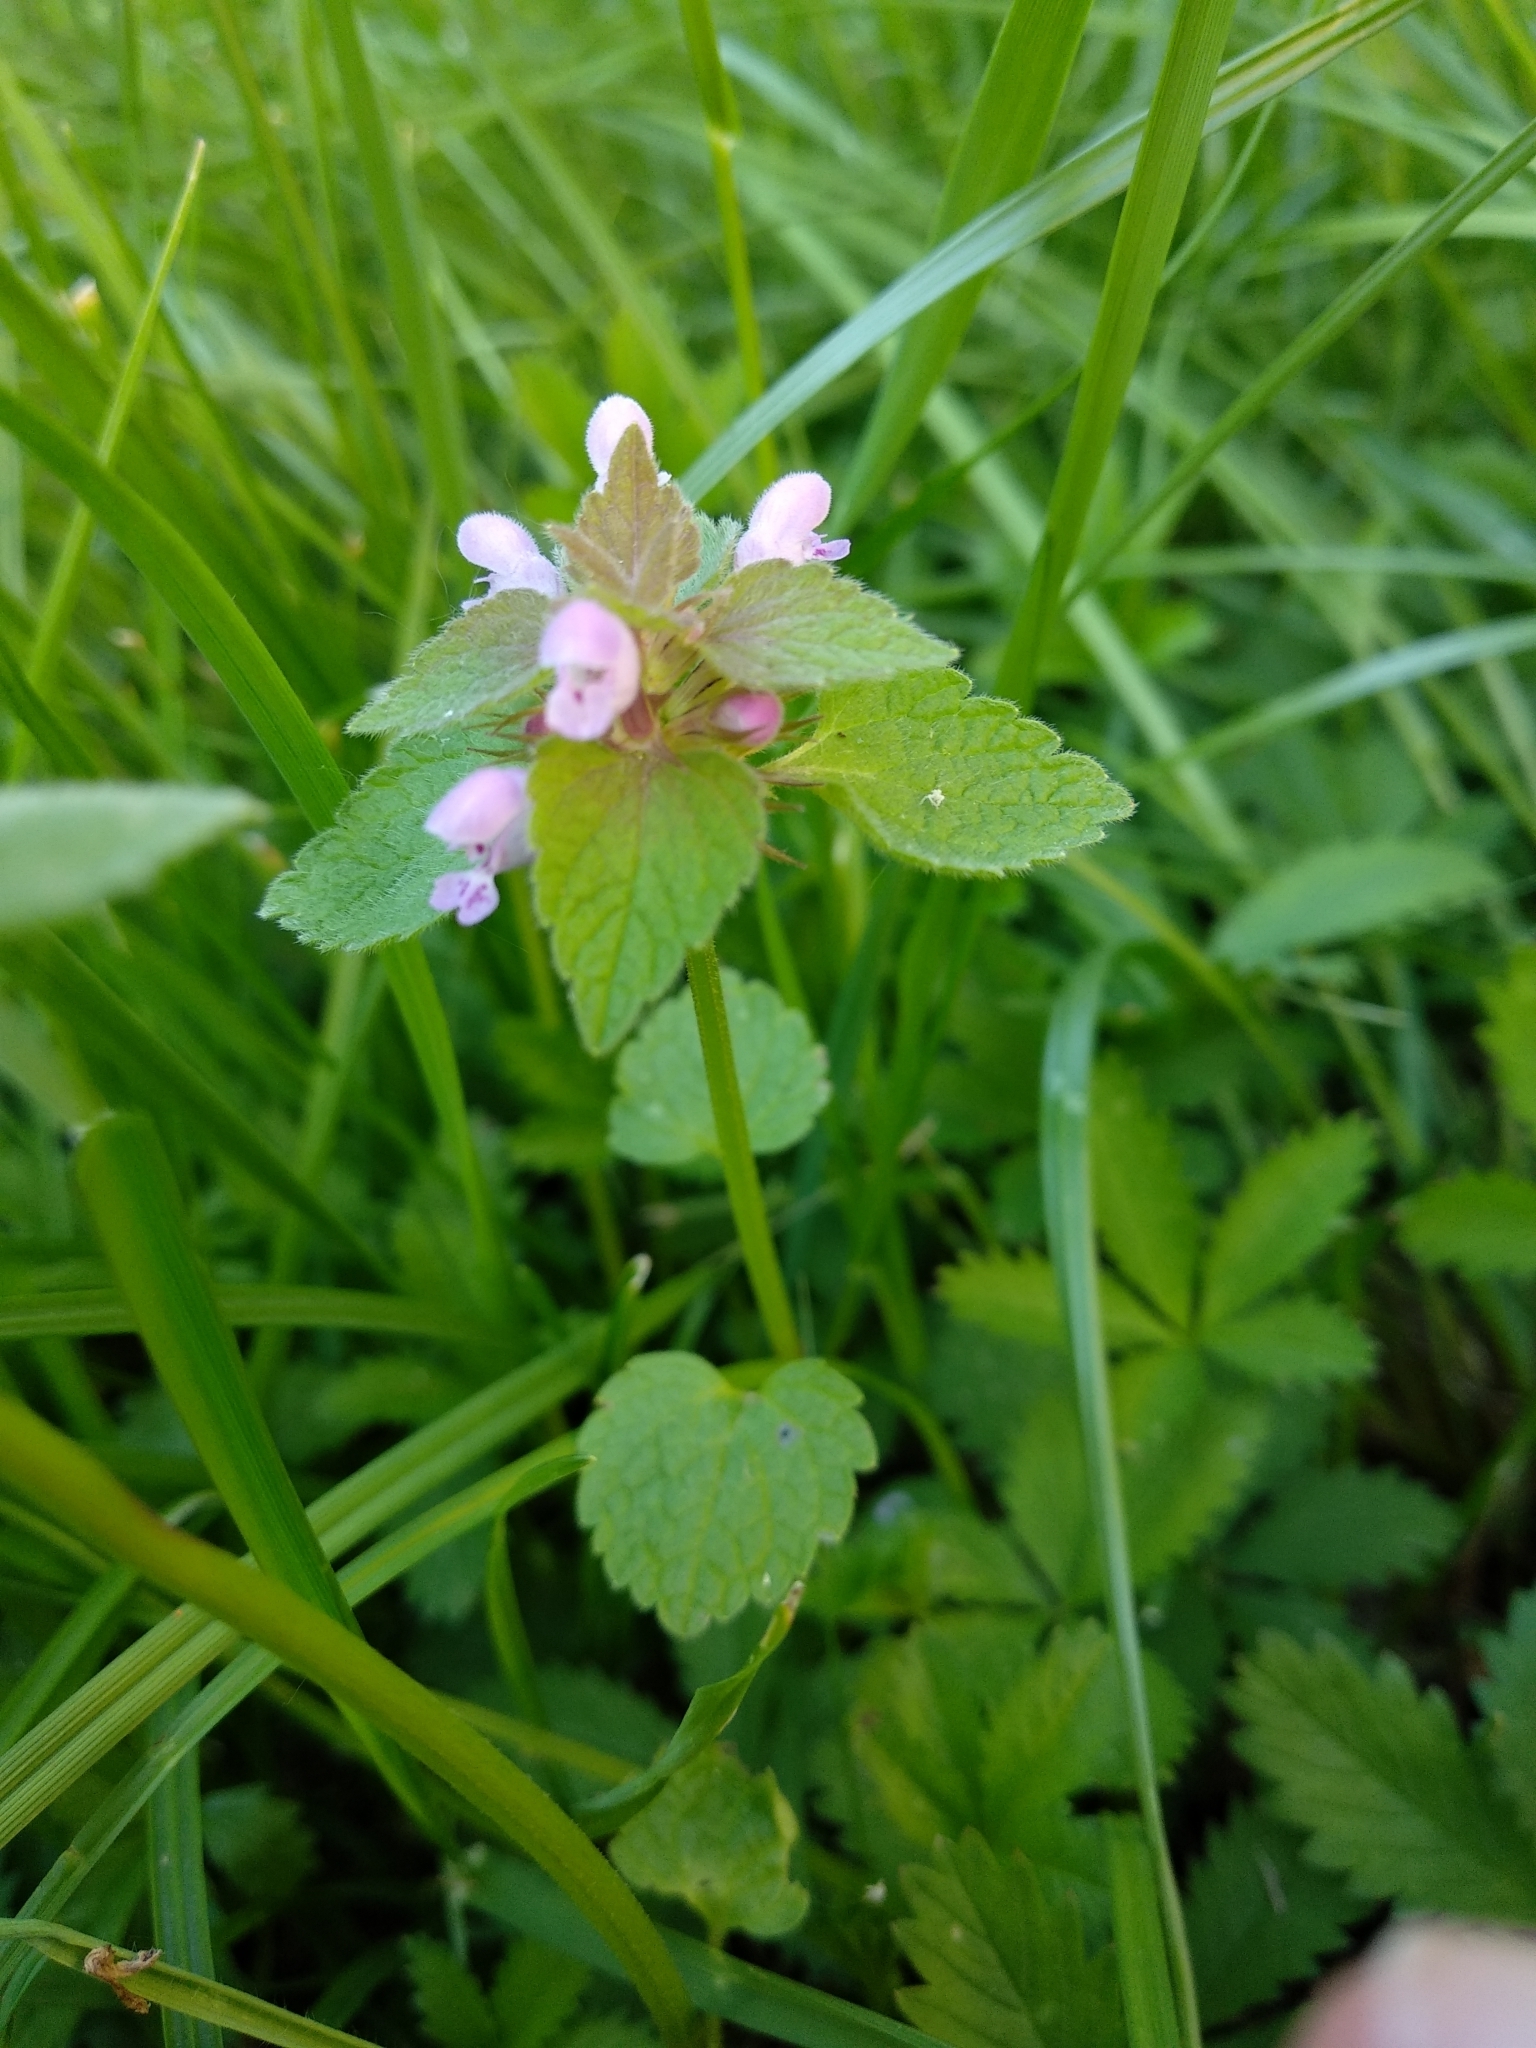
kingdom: Plantae
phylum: Tracheophyta
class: Magnoliopsida
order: Lamiales
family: Lamiaceae
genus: Lamium
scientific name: Lamium purpureum
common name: Red dead-nettle
